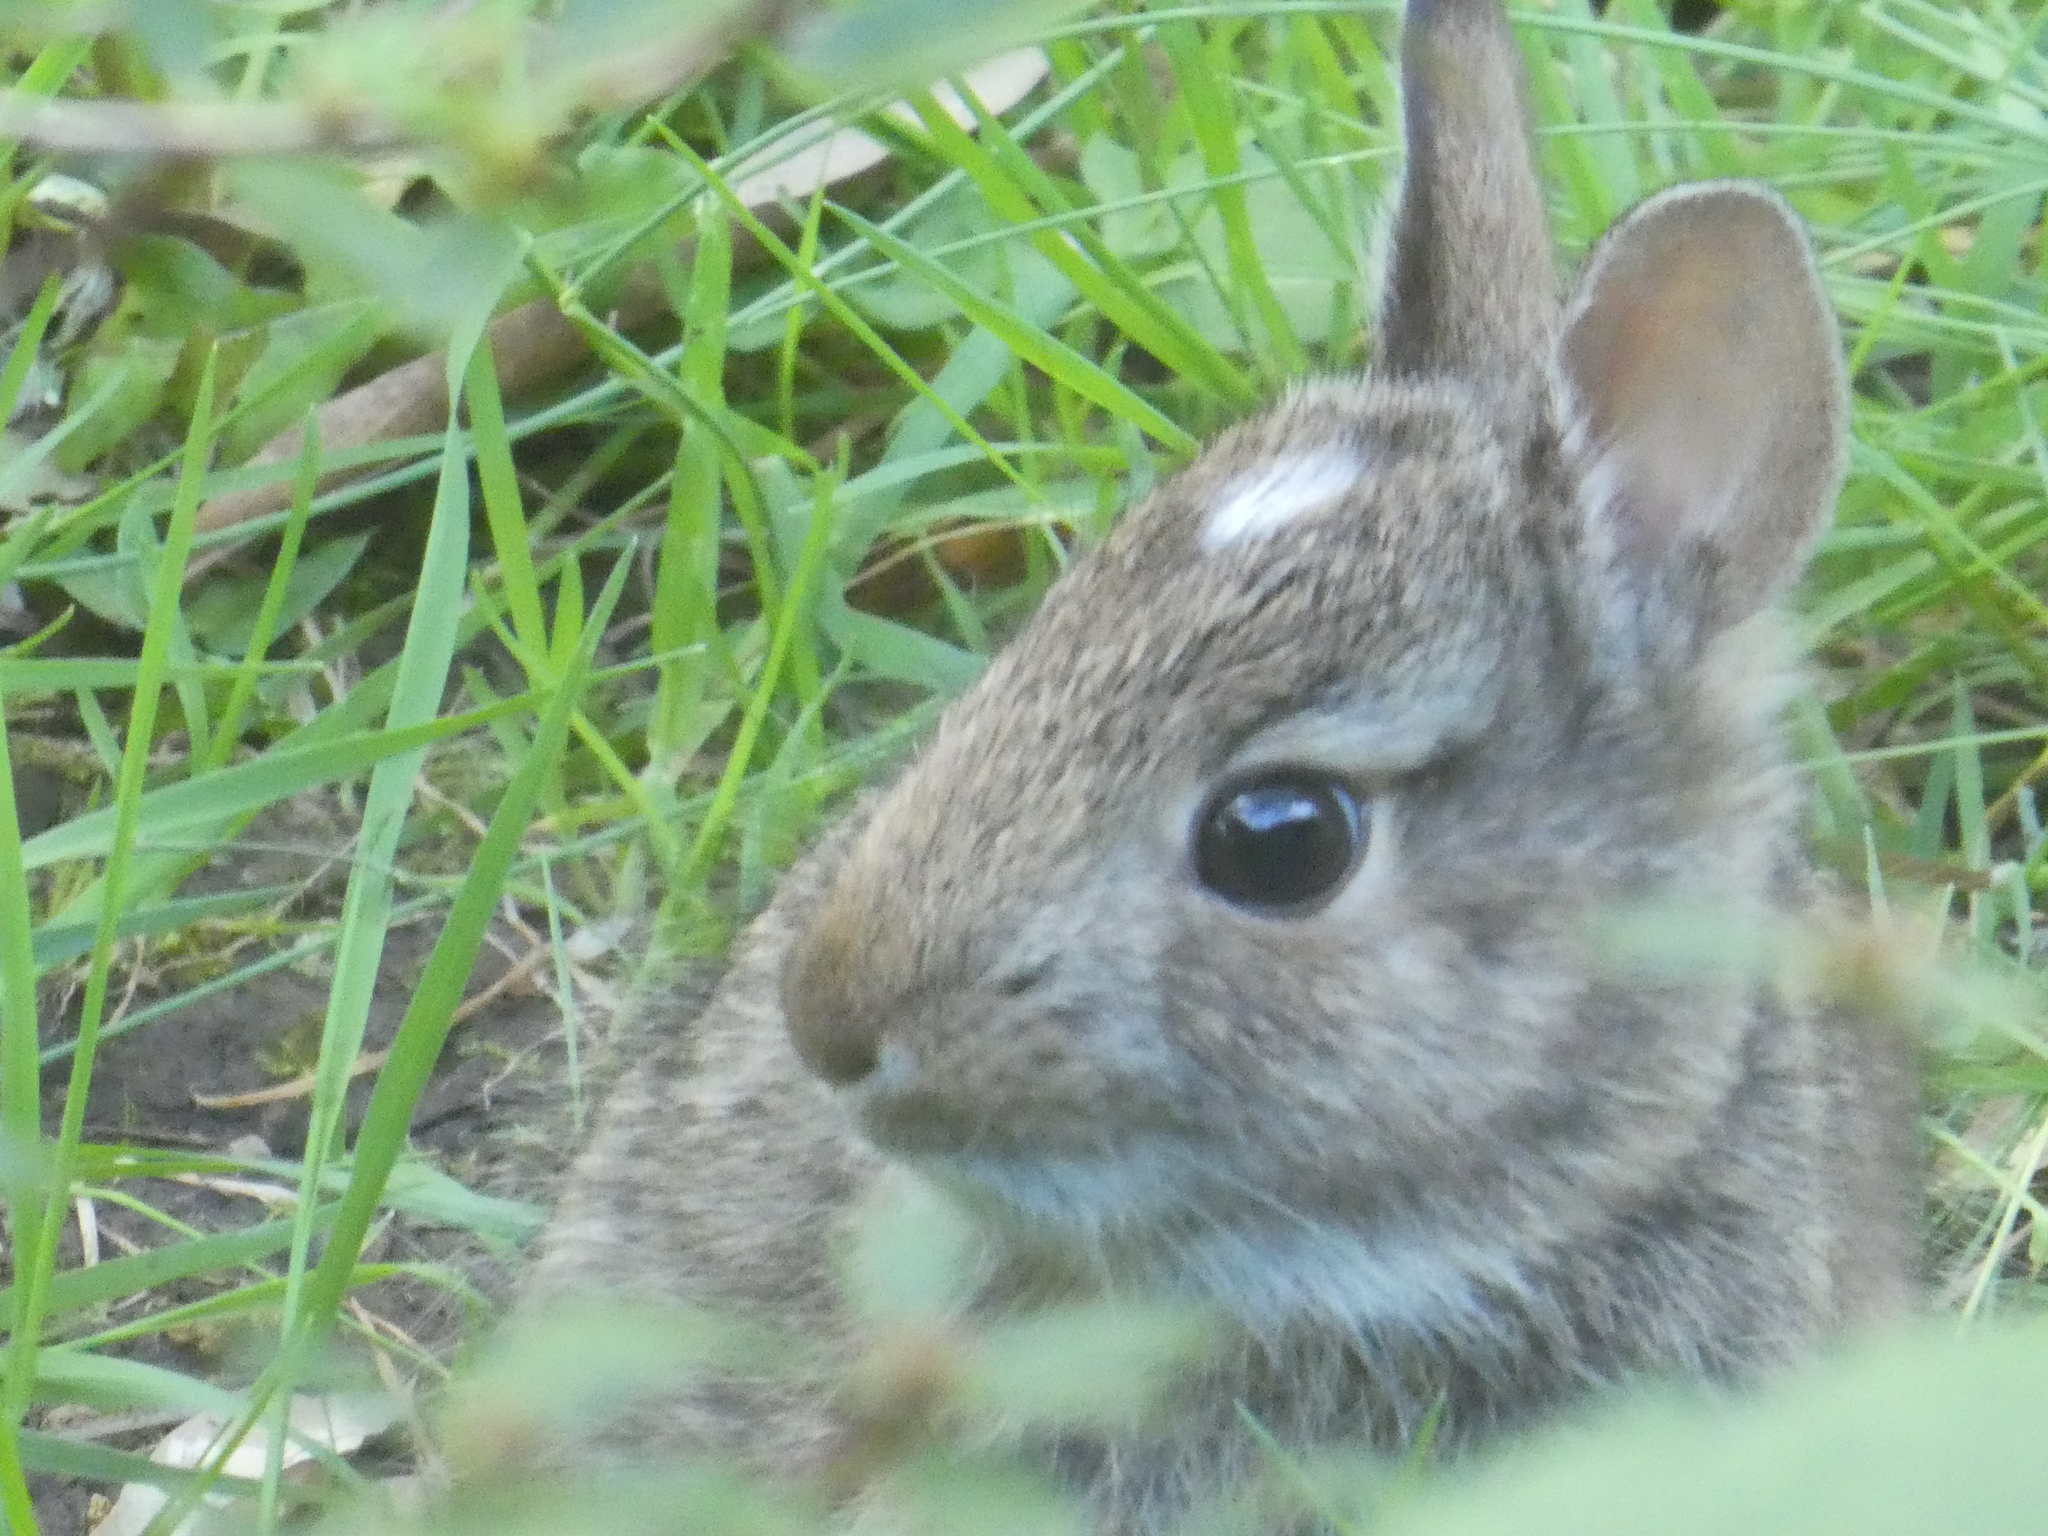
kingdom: Animalia
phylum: Chordata
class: Mammalia
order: Lagomorpha
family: Leporidae
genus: Sylvilagus
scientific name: Sylvilagus
